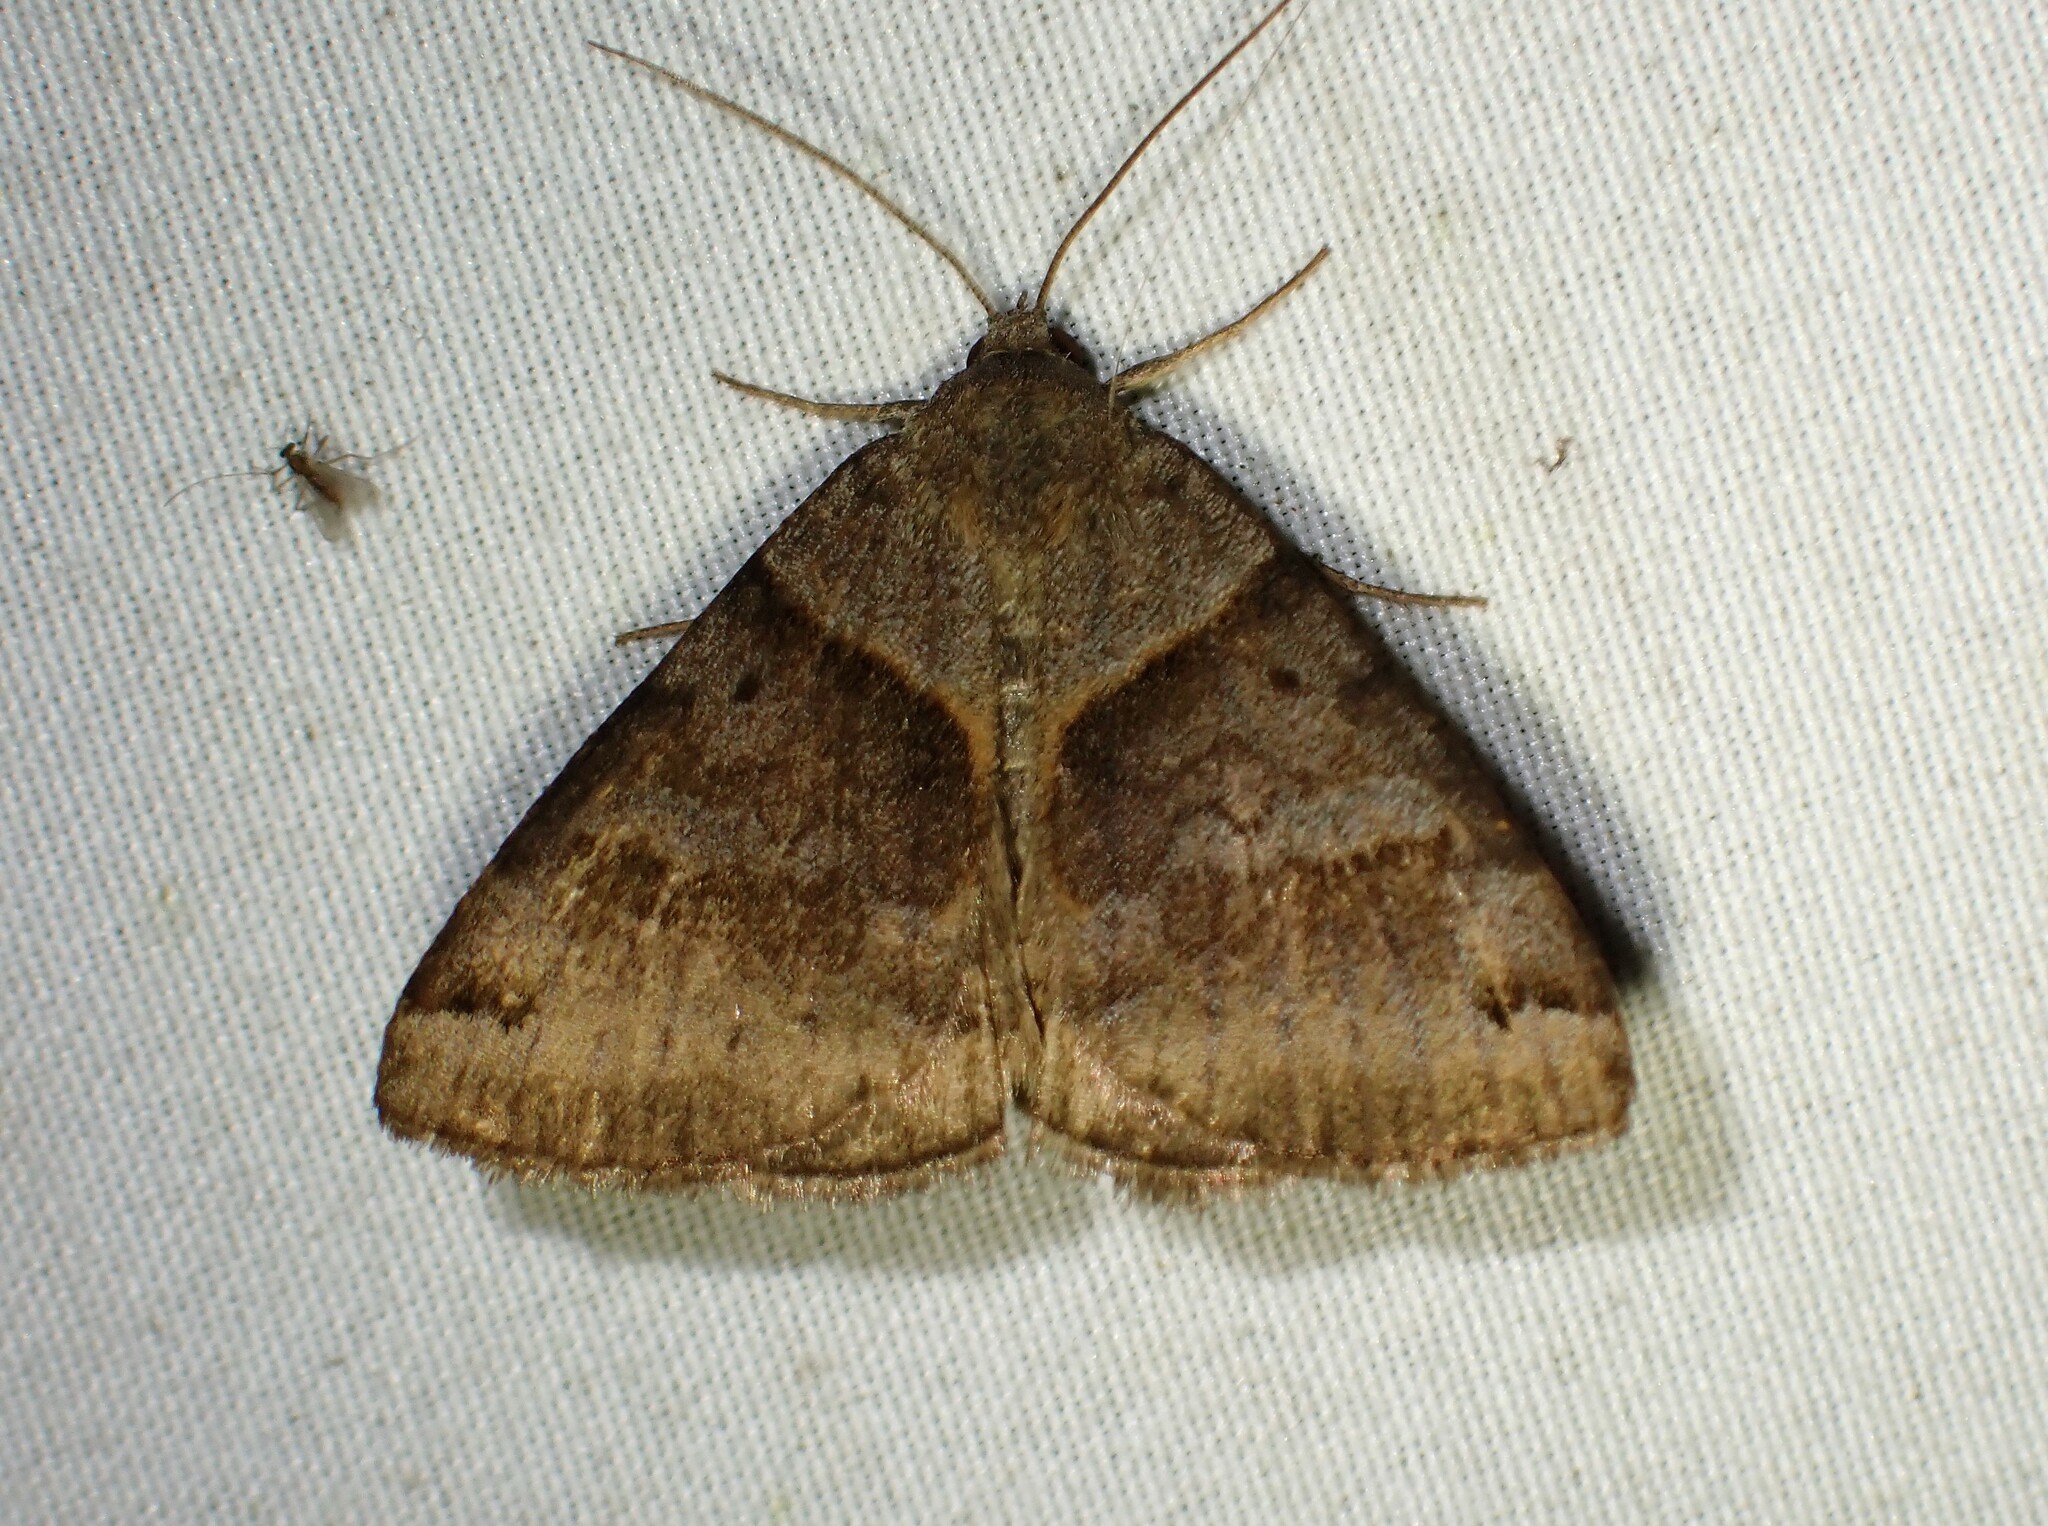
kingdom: Animalia
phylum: Arthropoda
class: Insecta
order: Lepidoptera
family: Erebidae
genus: Caenurgina
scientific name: Caenurgina crassiuscula
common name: Double-barred
